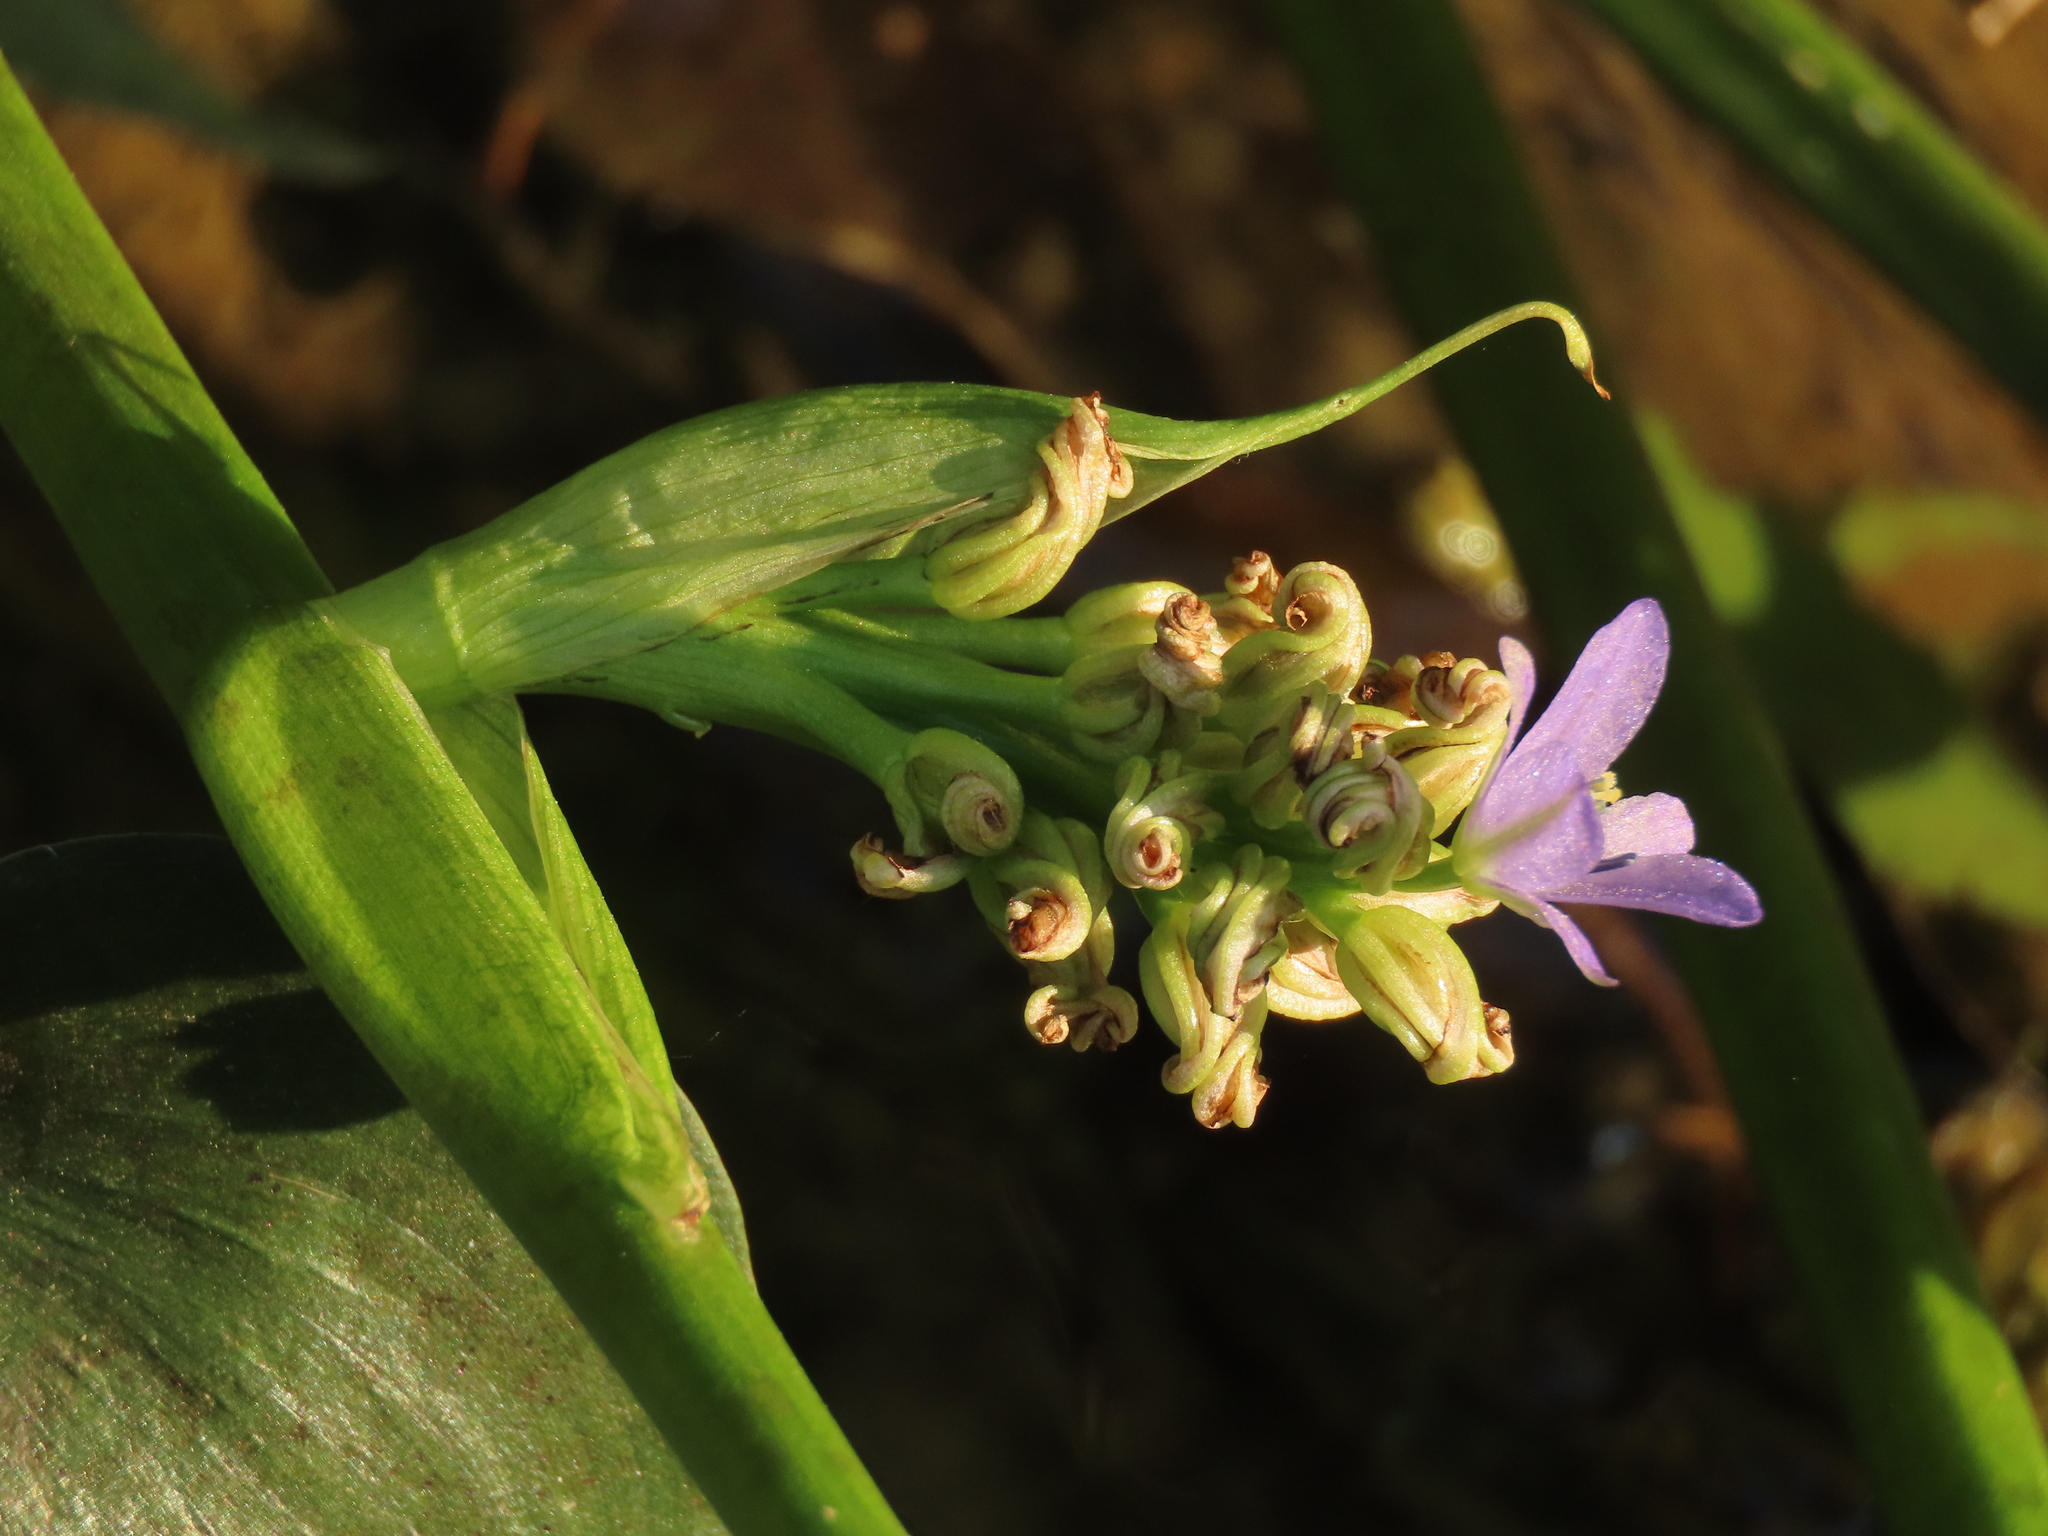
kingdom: Plantae
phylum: Tracheophyta
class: Liliopsida
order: Commelinales
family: Pontederiaceae
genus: Pontederia
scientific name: Pontederia vaginalis
